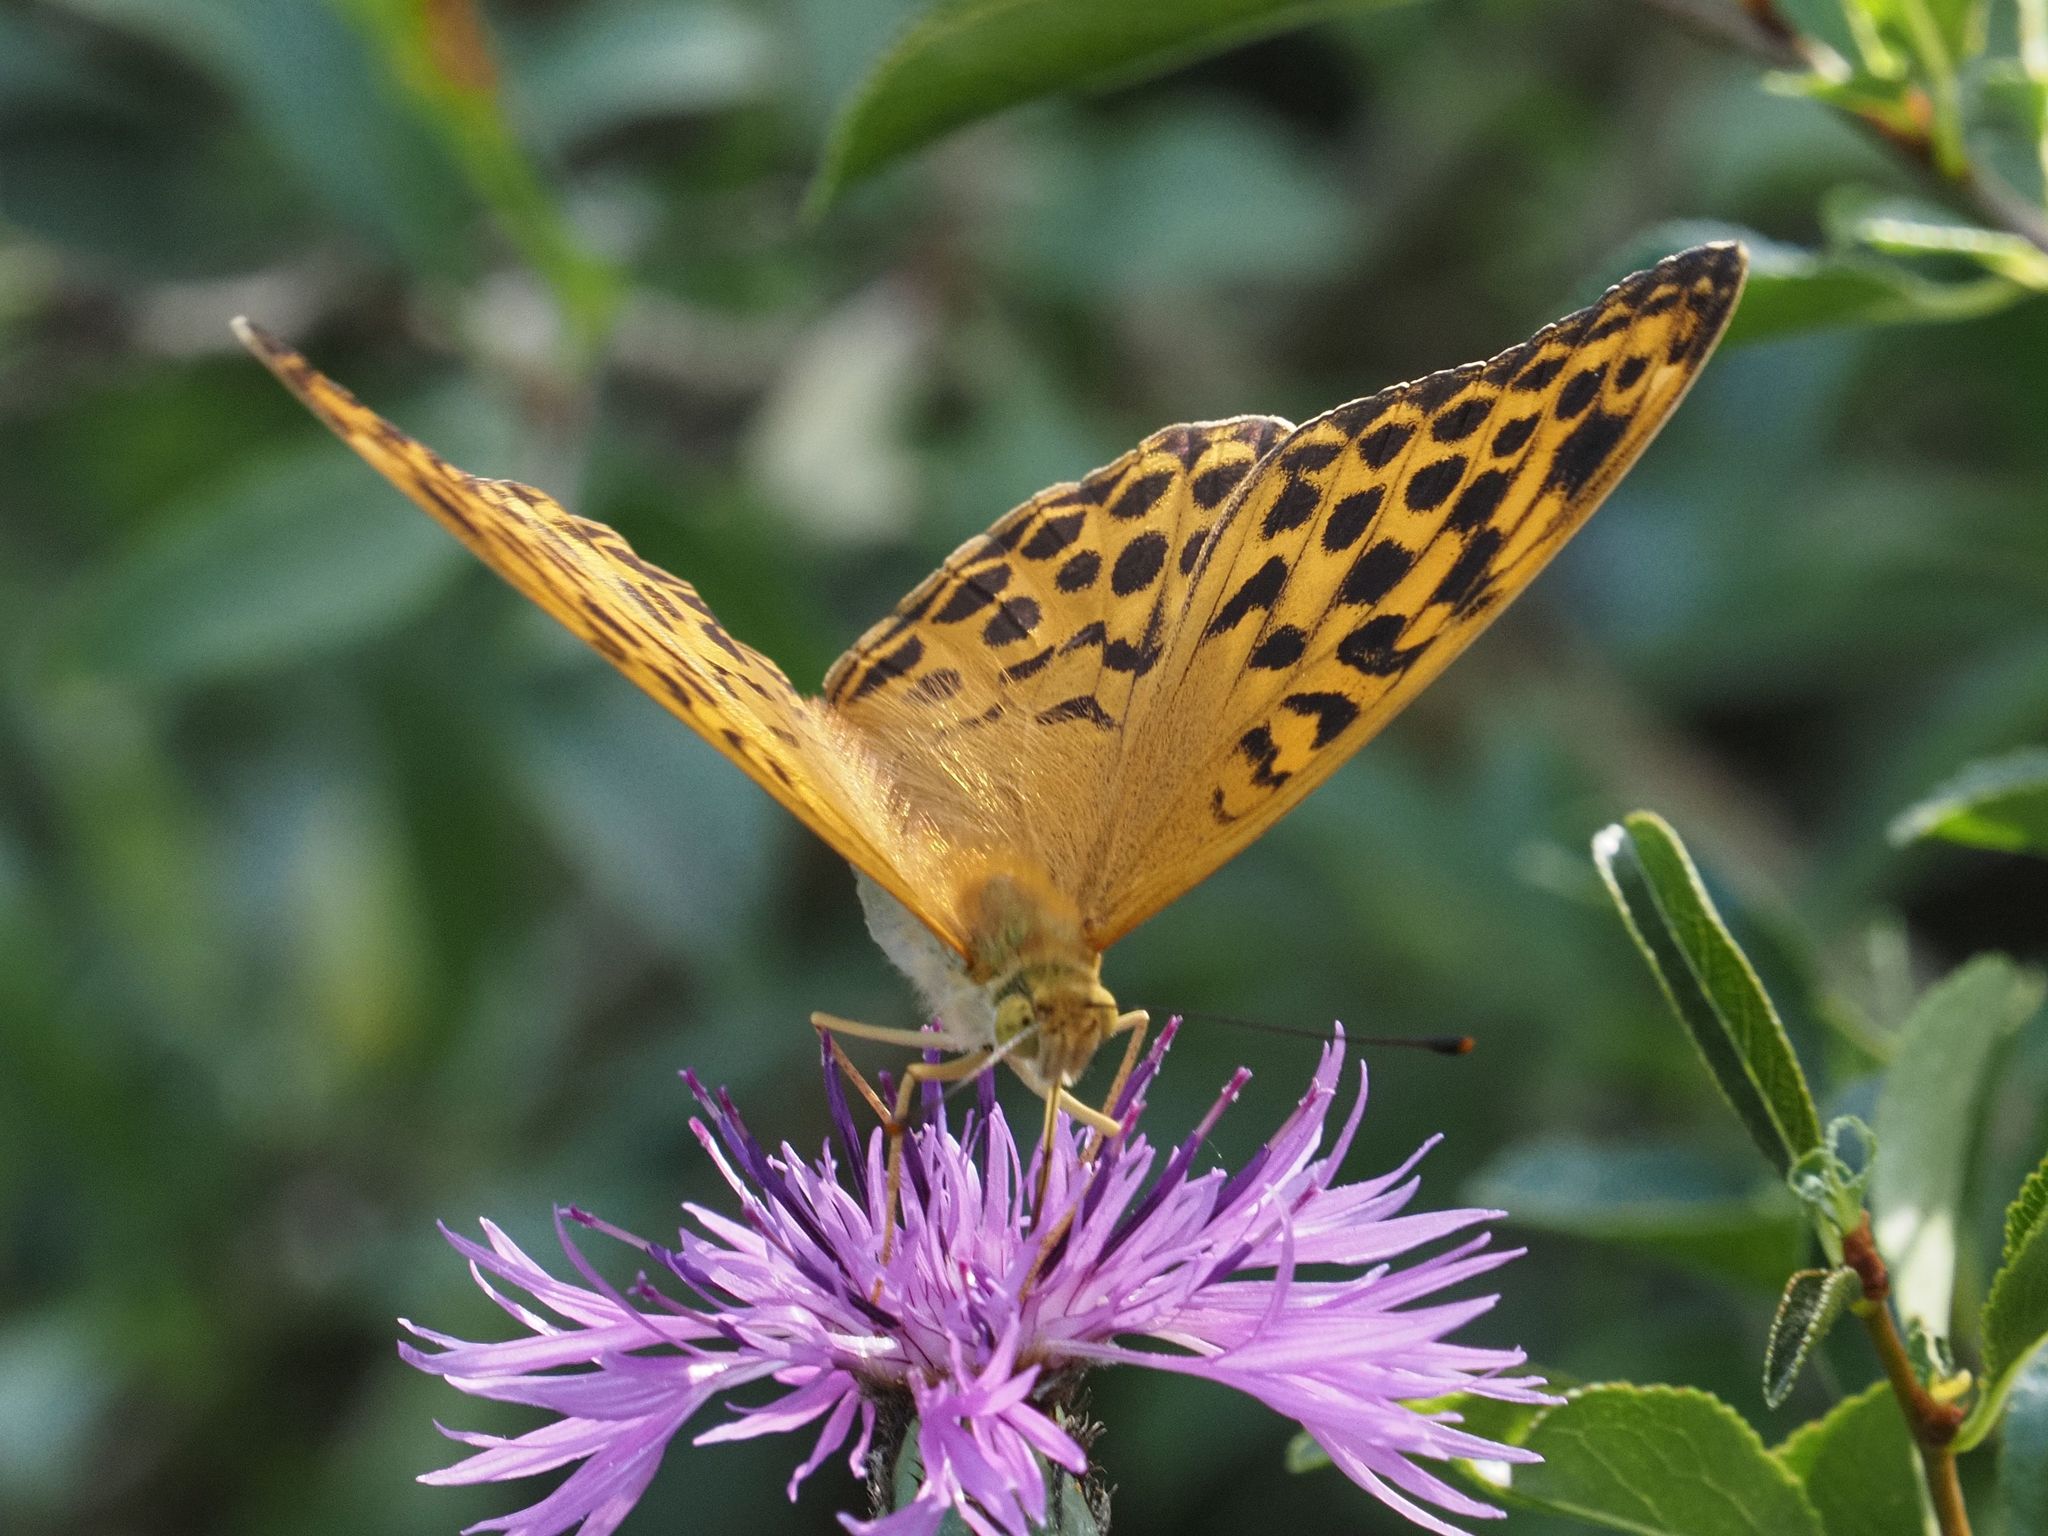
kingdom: Animalia
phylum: Arthropoda
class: Insecta
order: Lepidoptera
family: Nymphalidae
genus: Argynnis
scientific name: Argynnis paphia
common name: Silver-washed fritillary
